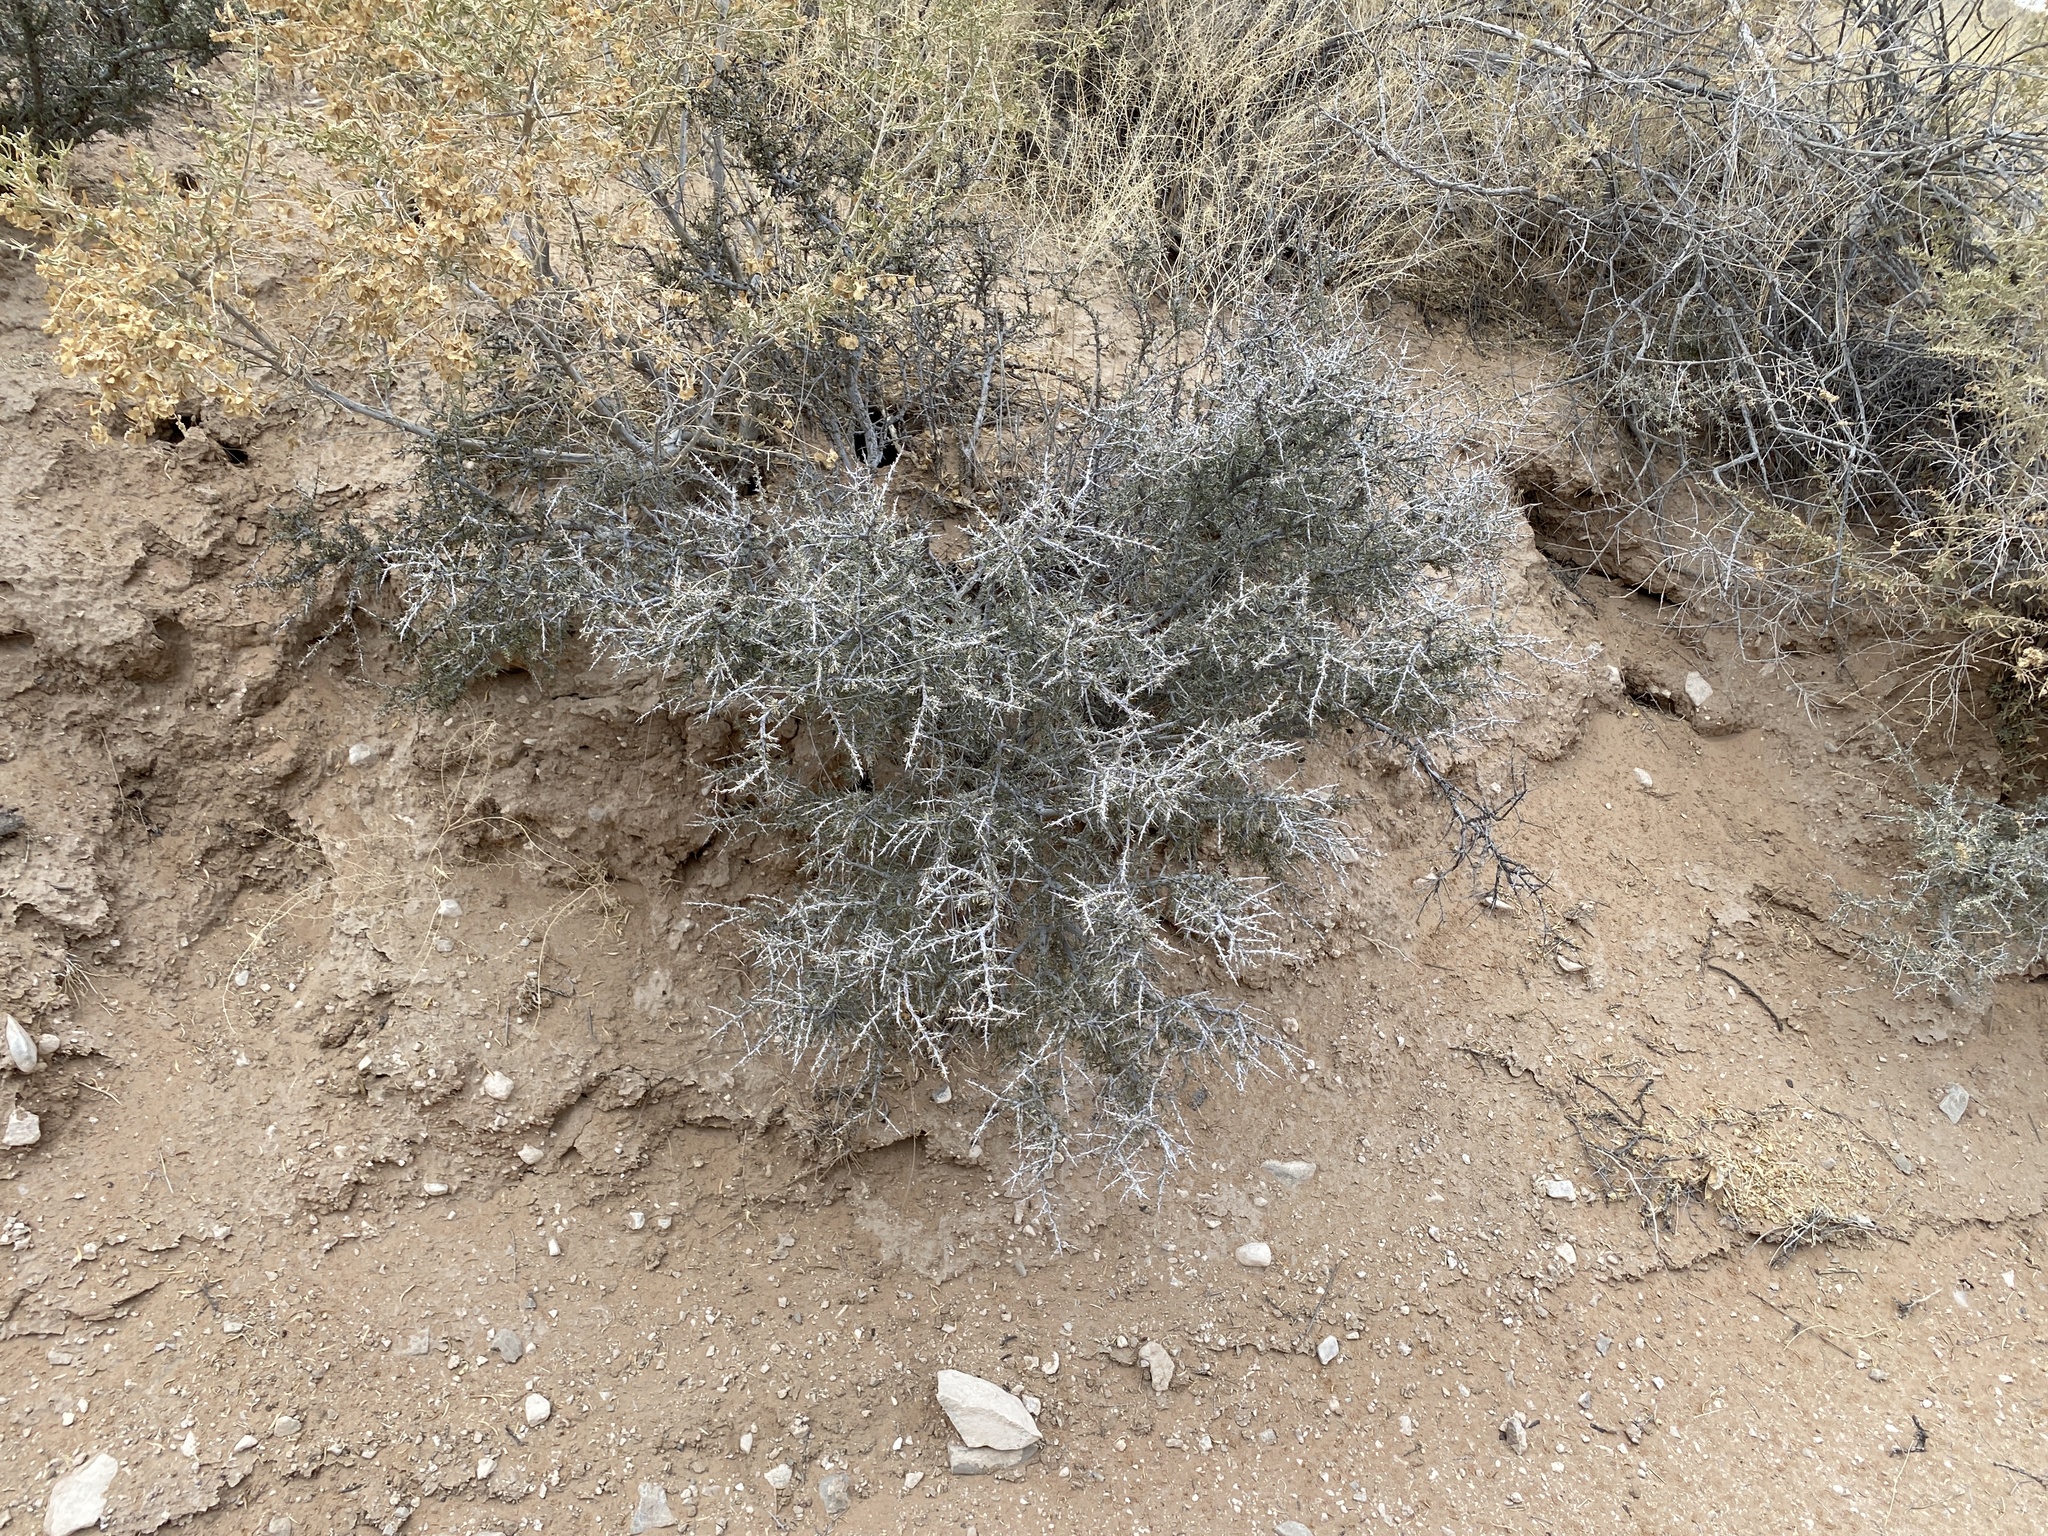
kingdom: Plantae
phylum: Tracheophyta
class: Magnoliopsida
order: Rosales
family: Rhamnaceae
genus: Condalia
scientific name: Condalia ericoides
